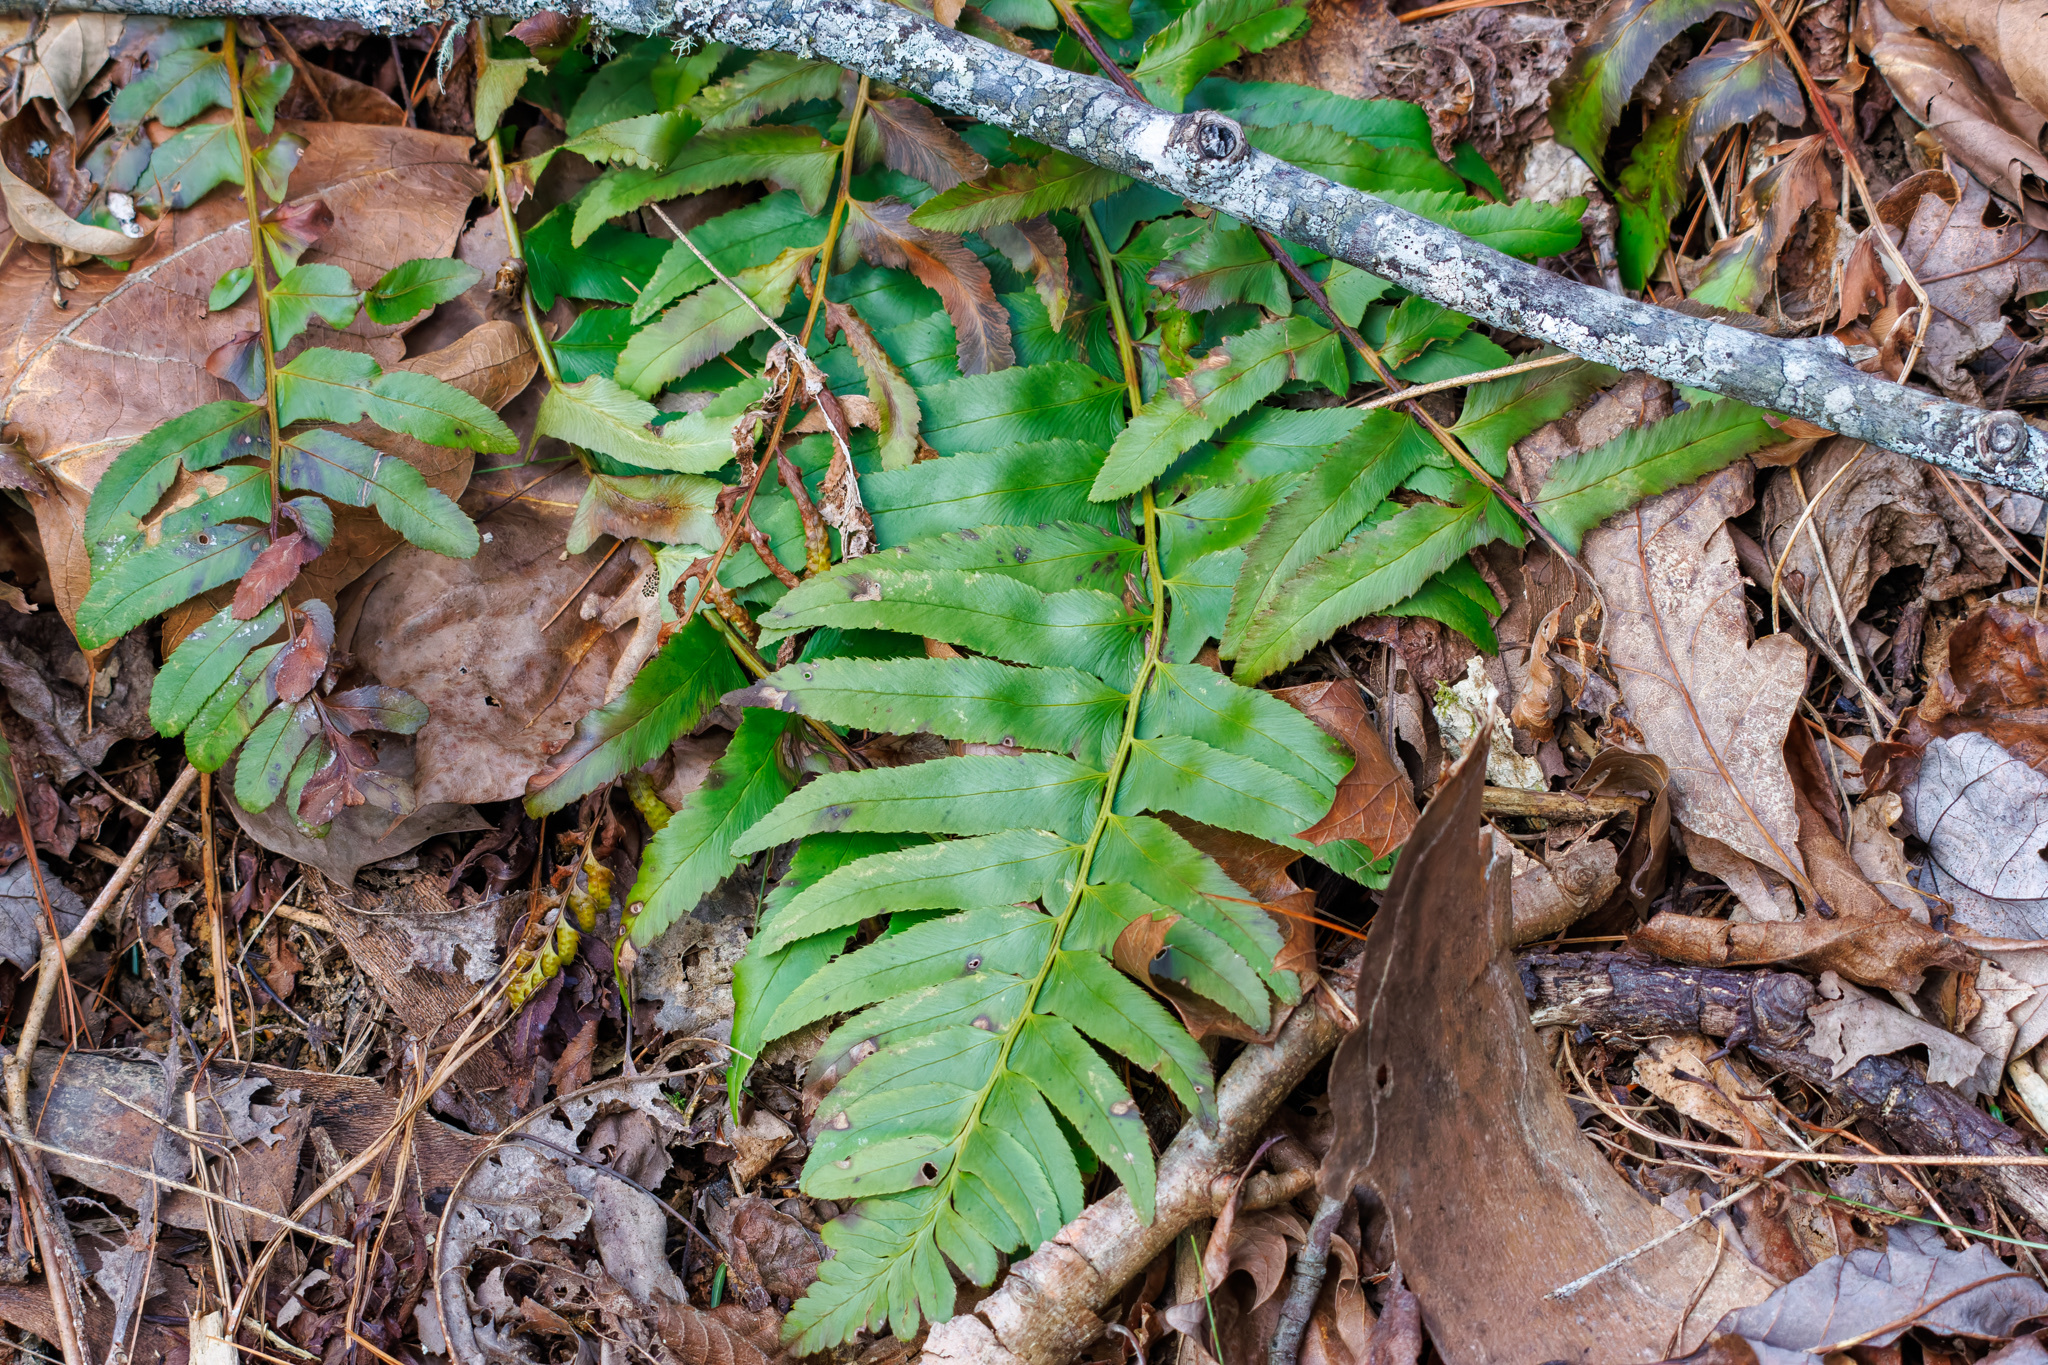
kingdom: Plantae
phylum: Tracheophyta
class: Polypodiopsida
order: Polypodiales
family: Dryopteridaceae
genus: Polystichum
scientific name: Polystichum acrostichoides
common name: Christmas fern
